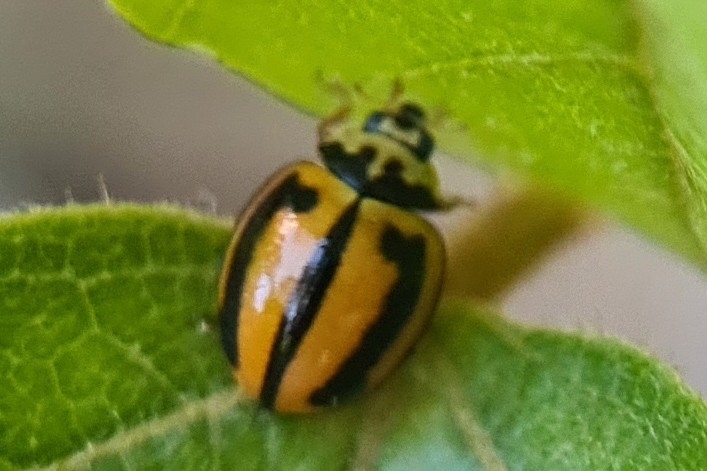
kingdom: Animalia
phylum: Arthropoda
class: Insecta
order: Coleoptera
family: Coccinellidae
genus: Micraspis
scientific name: Micraspis frenata
